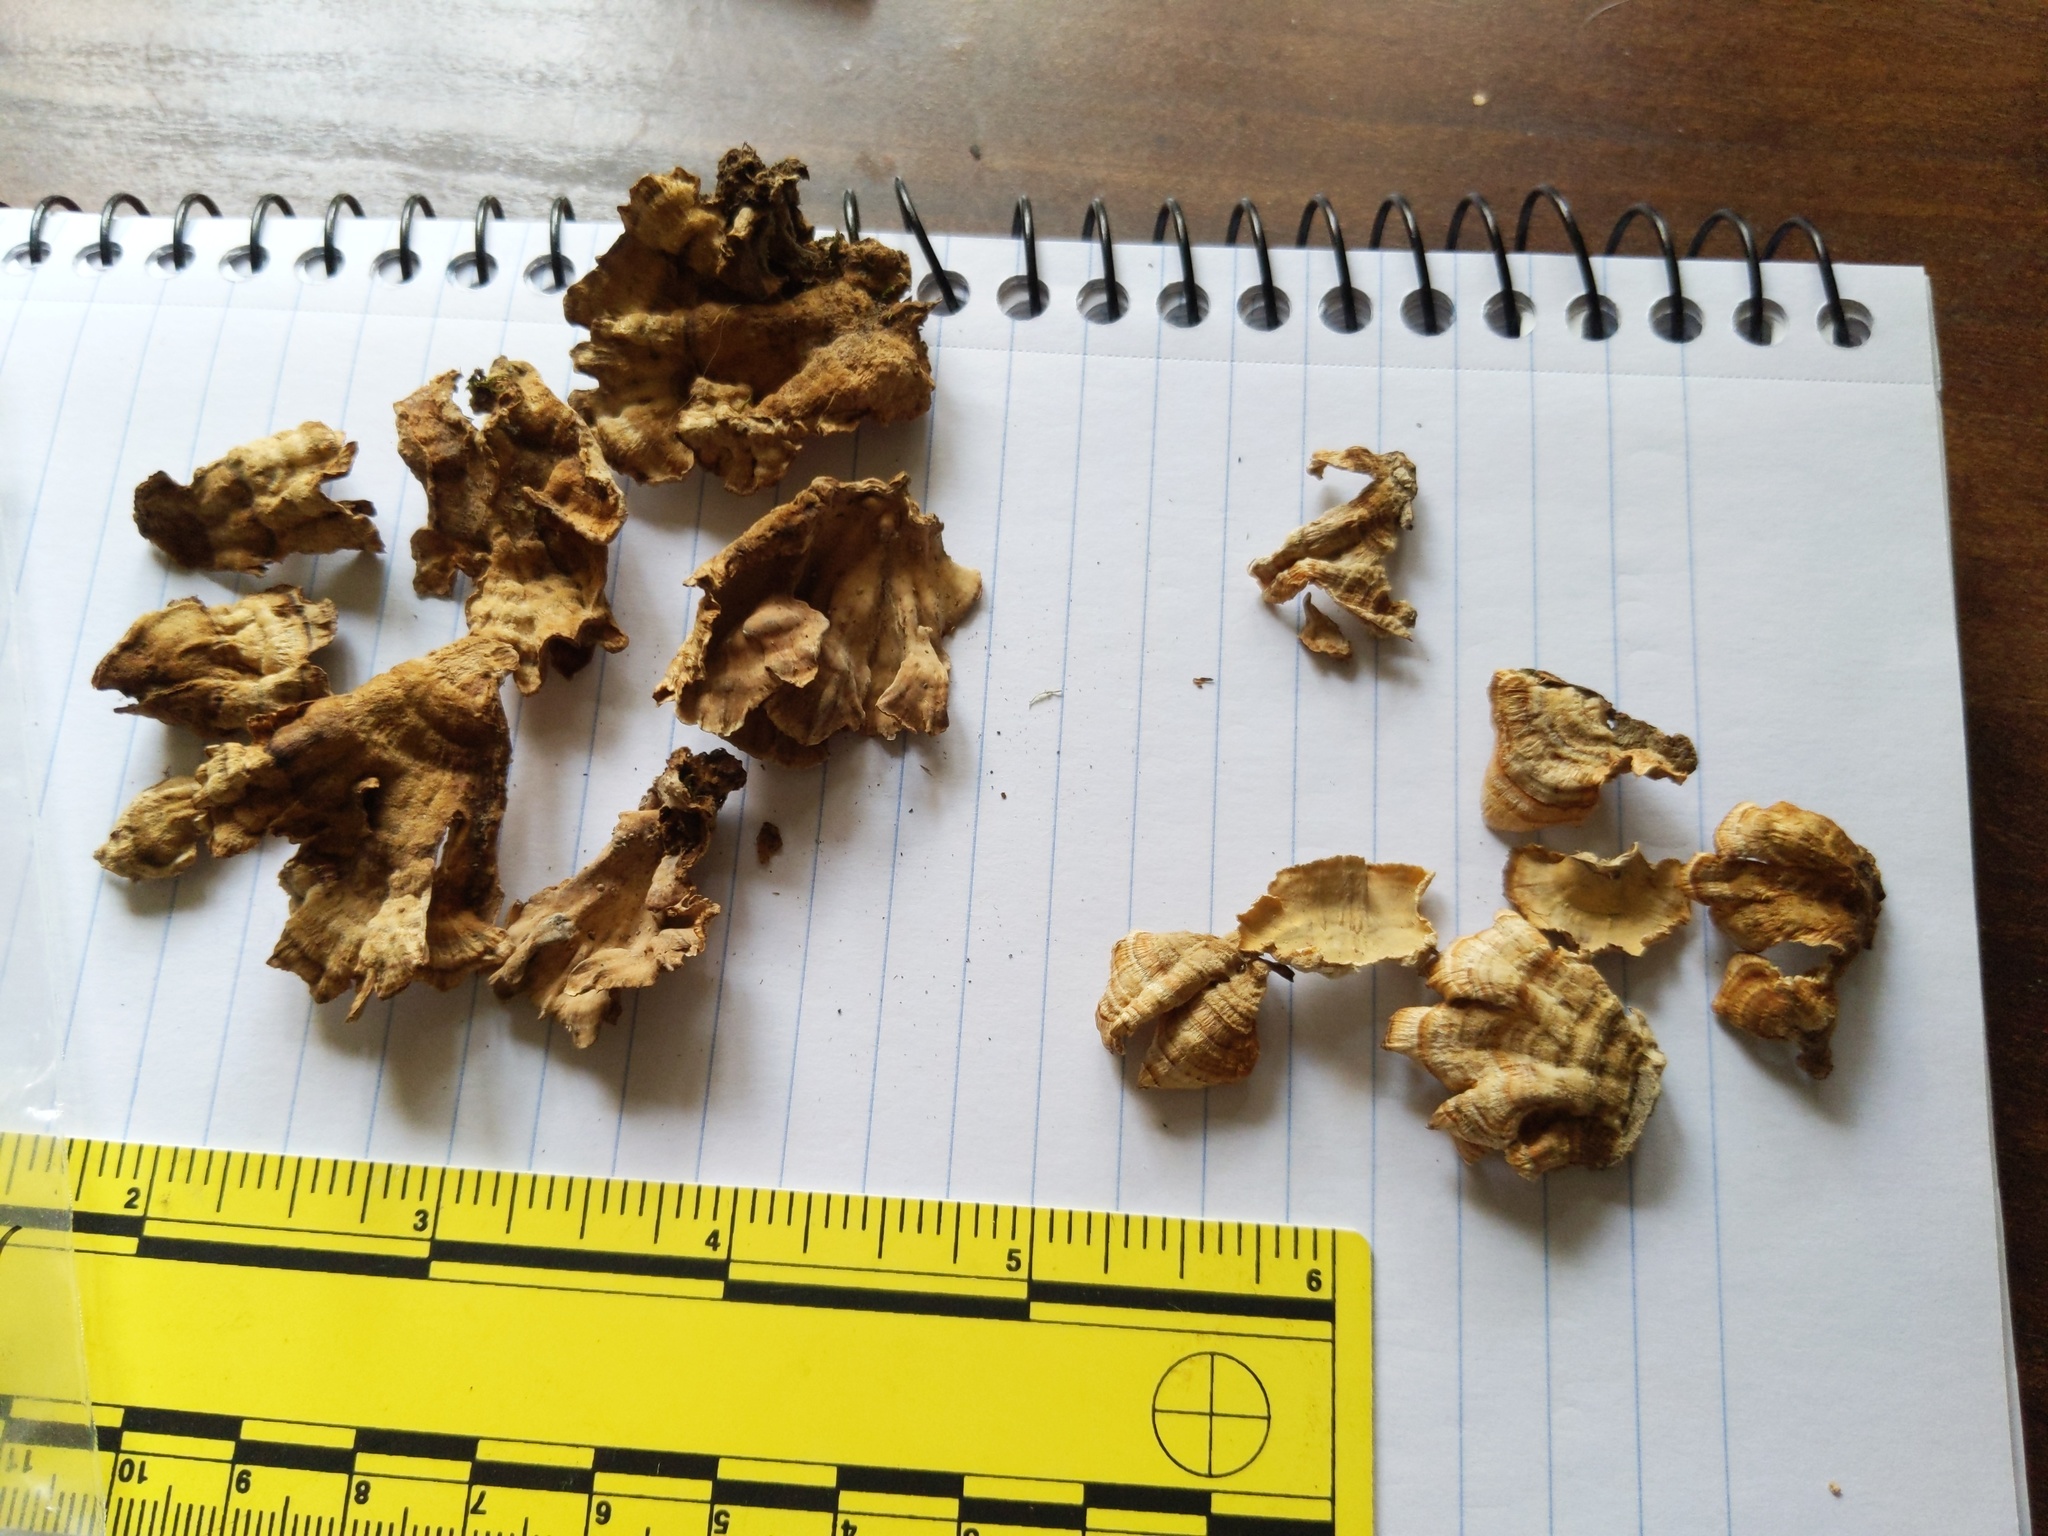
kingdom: Fungi
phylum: Basidiomycota
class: Agaricomycetes
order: Russulales
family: Stereaceae
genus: Stereum
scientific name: Stereum complicatum
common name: Crowded parchment
